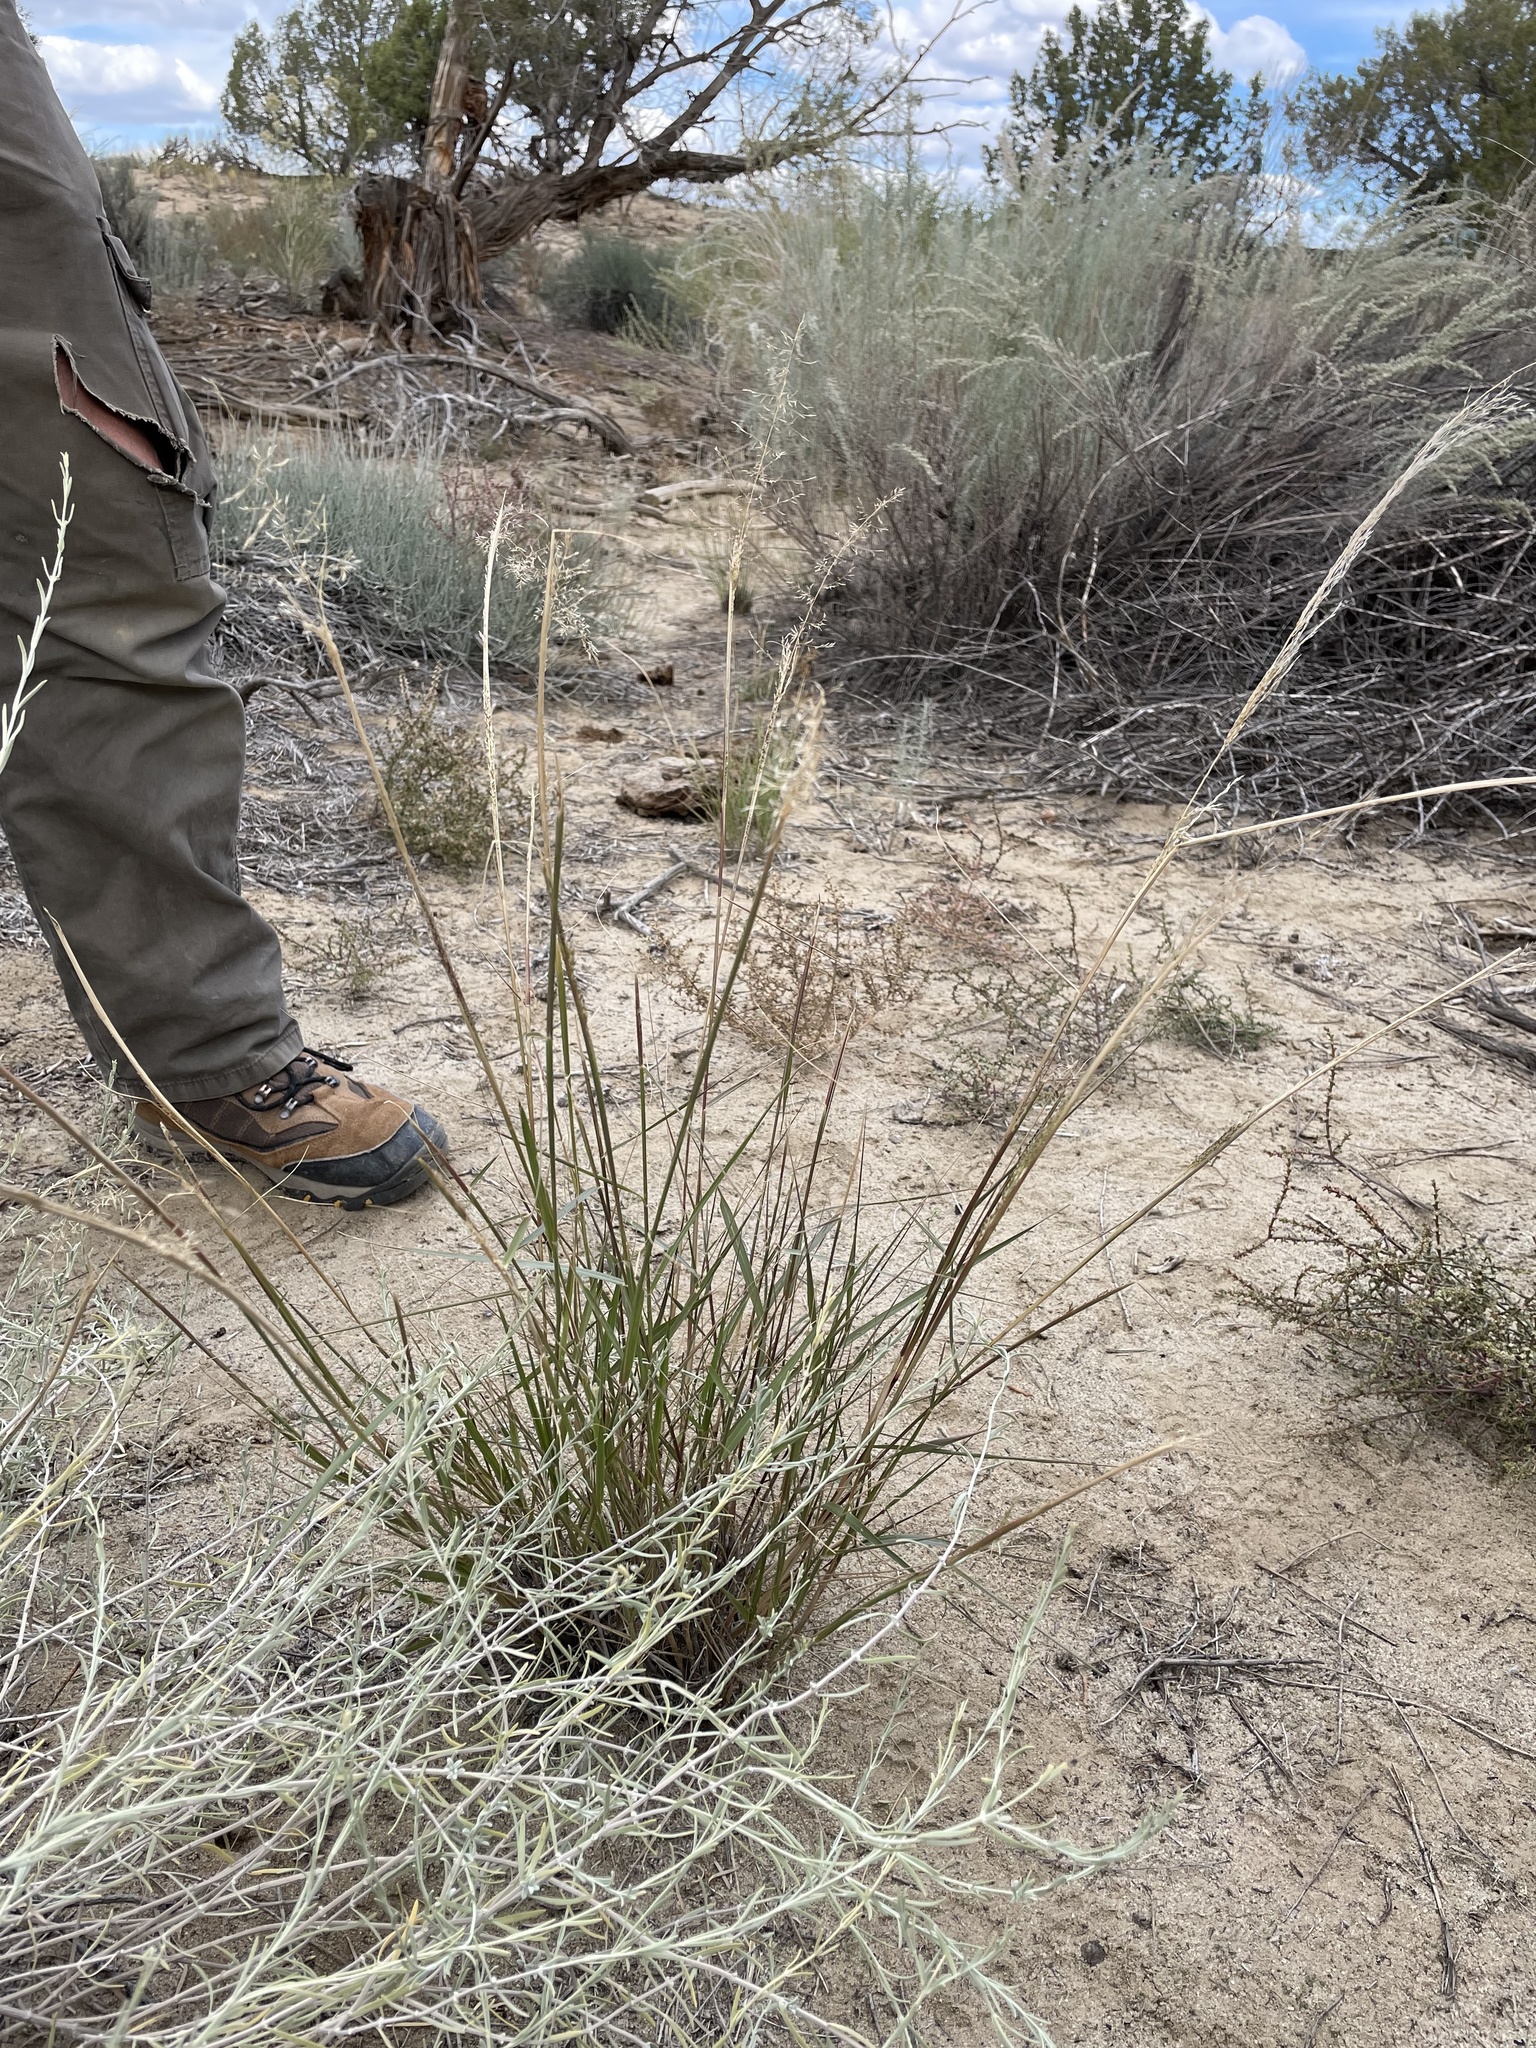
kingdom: Plantae
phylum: Tracheophyta
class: Liliopsida
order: Poales
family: Poaceae
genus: Sporobolus
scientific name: Sporobolus flexuosus
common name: Mesa dropseed
